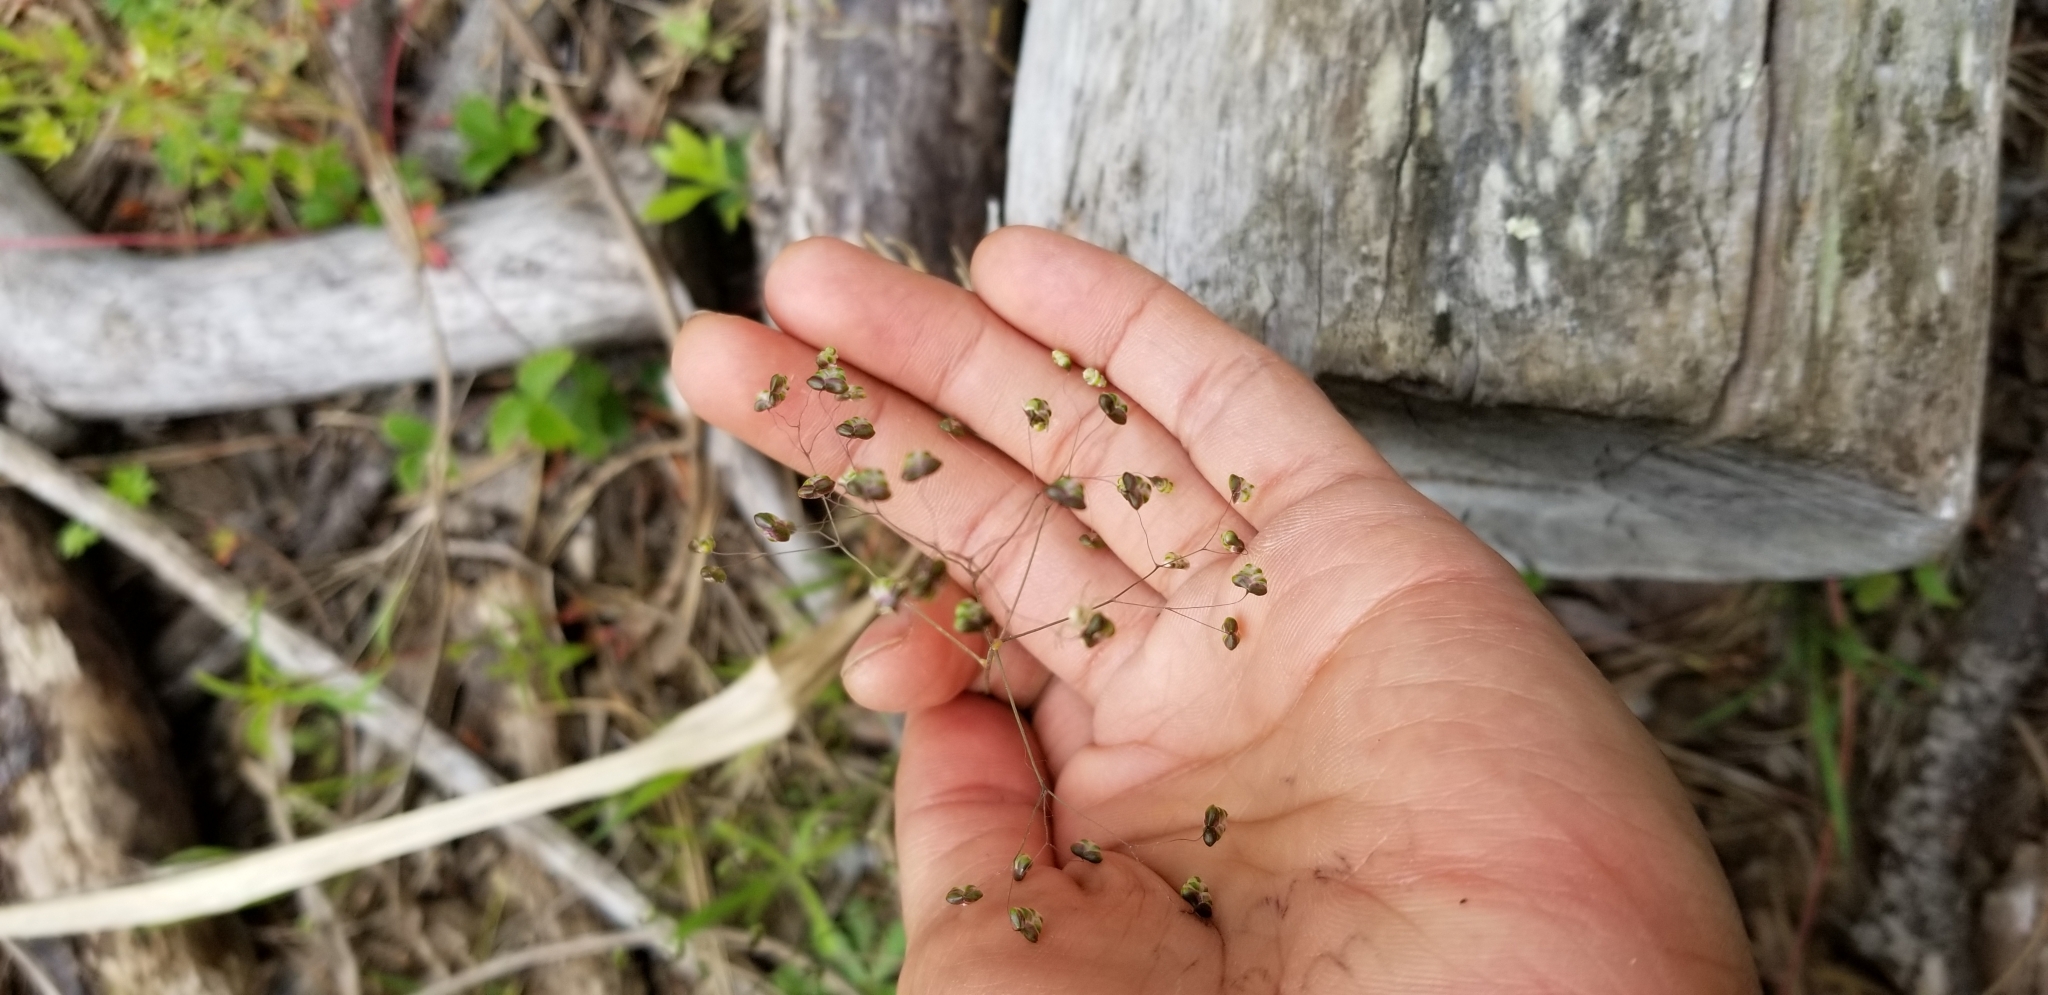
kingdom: Plantae
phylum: Tracheophyta
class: Liliopsida
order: Poales
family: Poaceae
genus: Briza
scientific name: Briza minor
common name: Lesser quaking-grass
